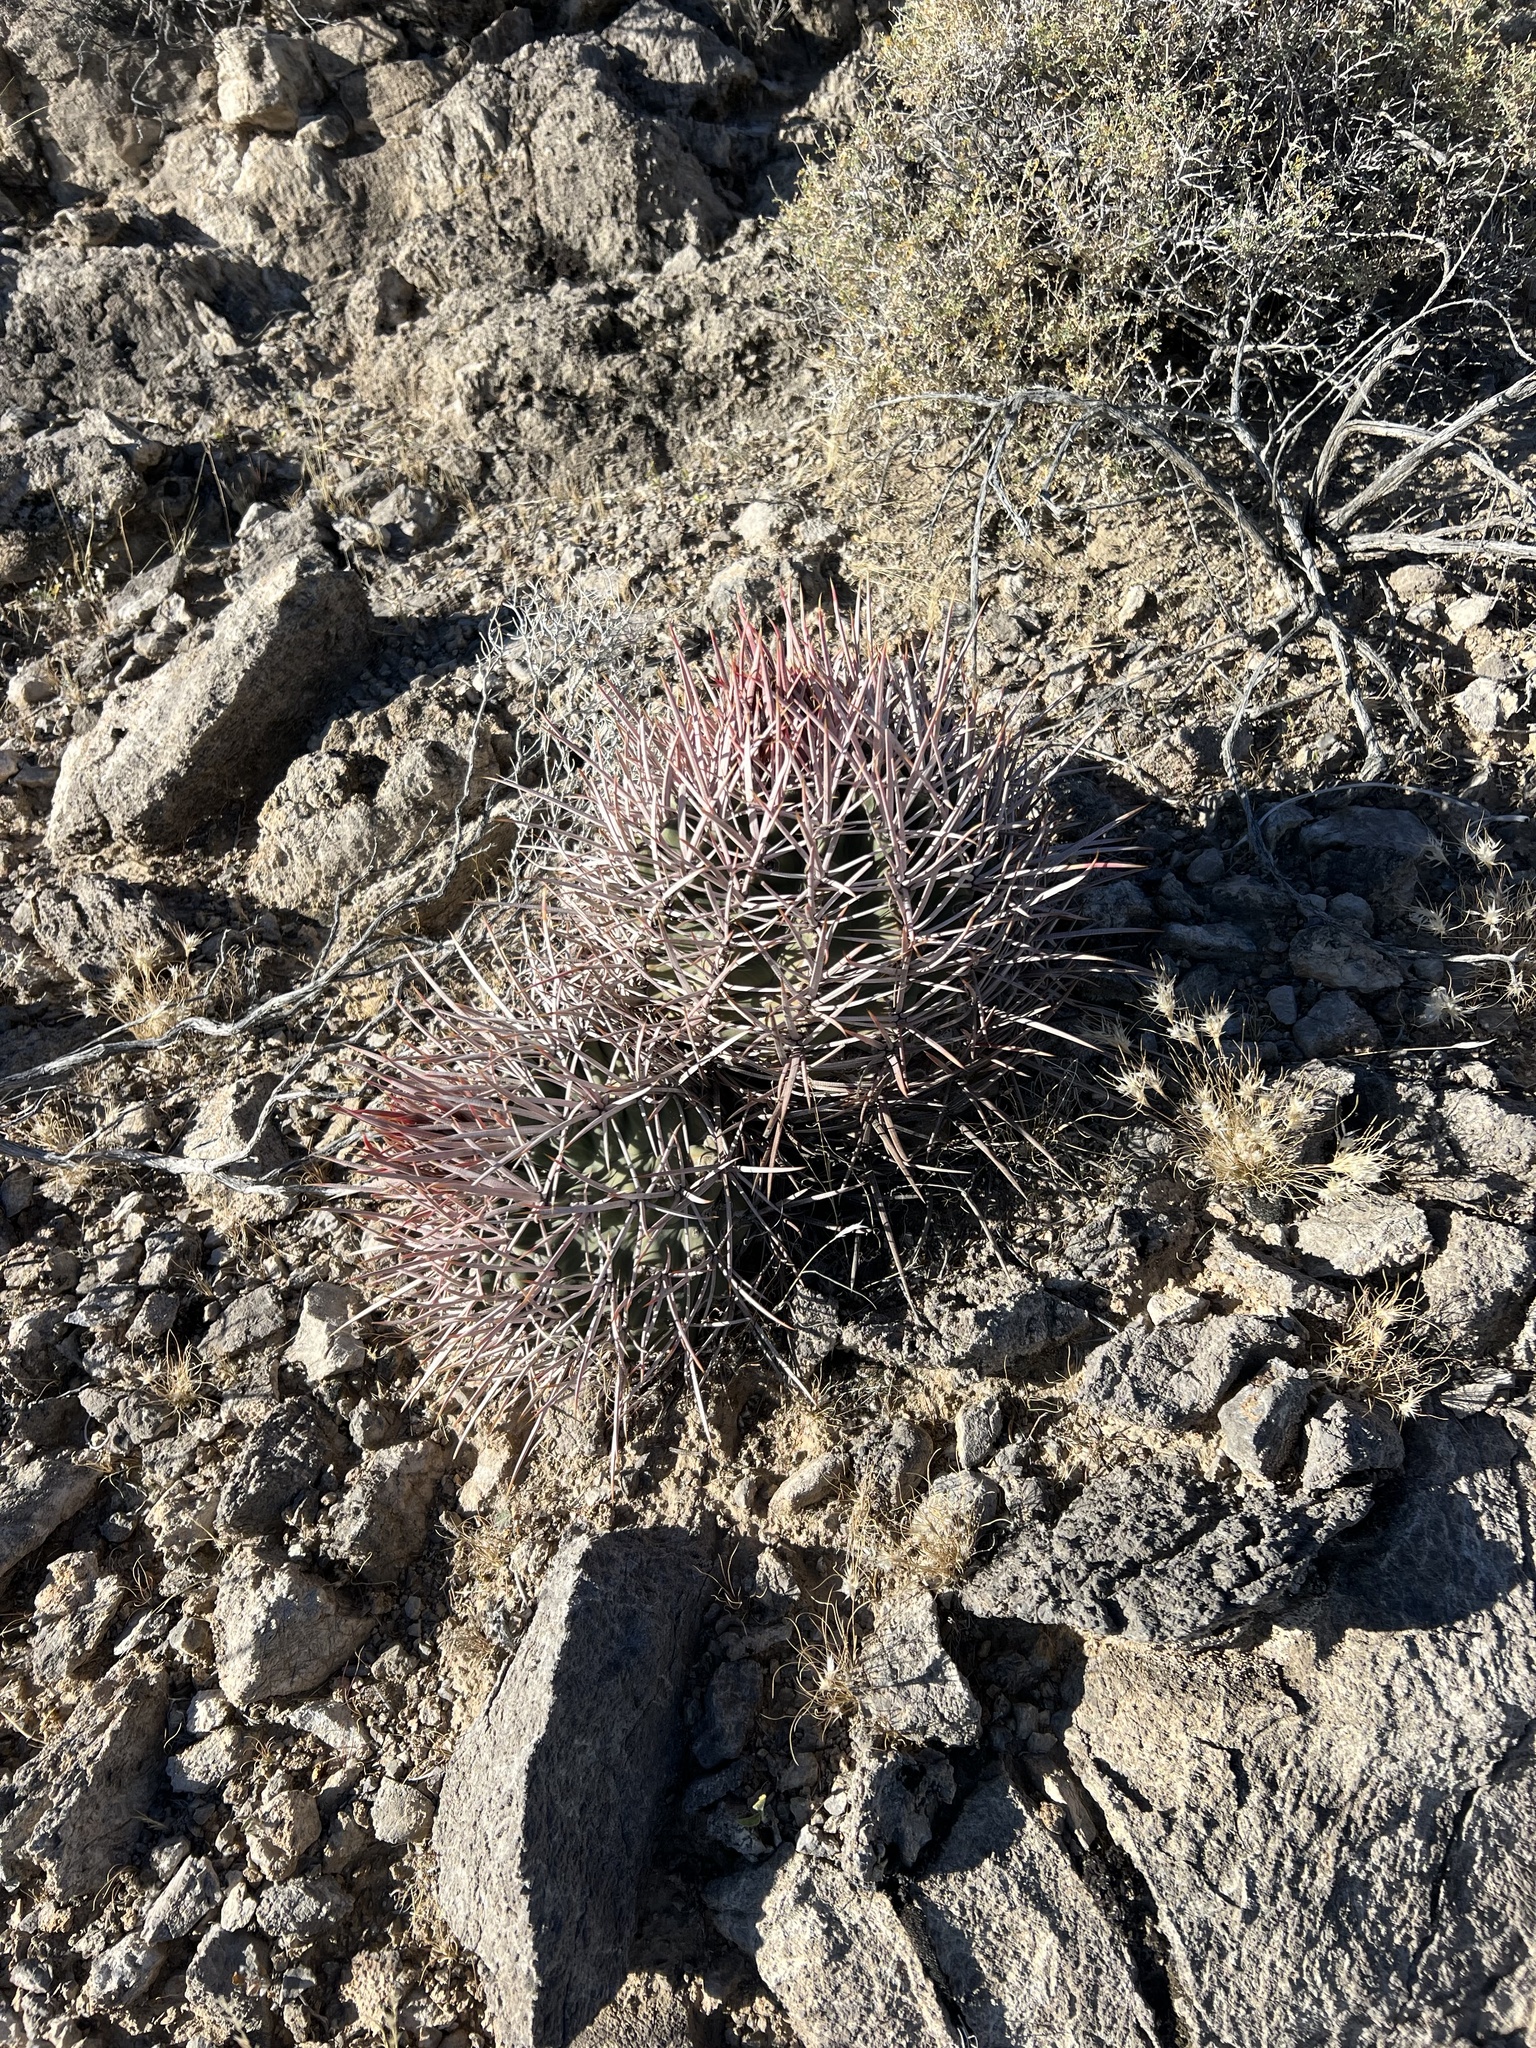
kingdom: Plantae
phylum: Tracheophyta
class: Magnoliopsida
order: Caryophyllales
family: Cactaceae
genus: Echinocactus
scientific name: Echinocactus polycephalus
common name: Cottontop cactus
